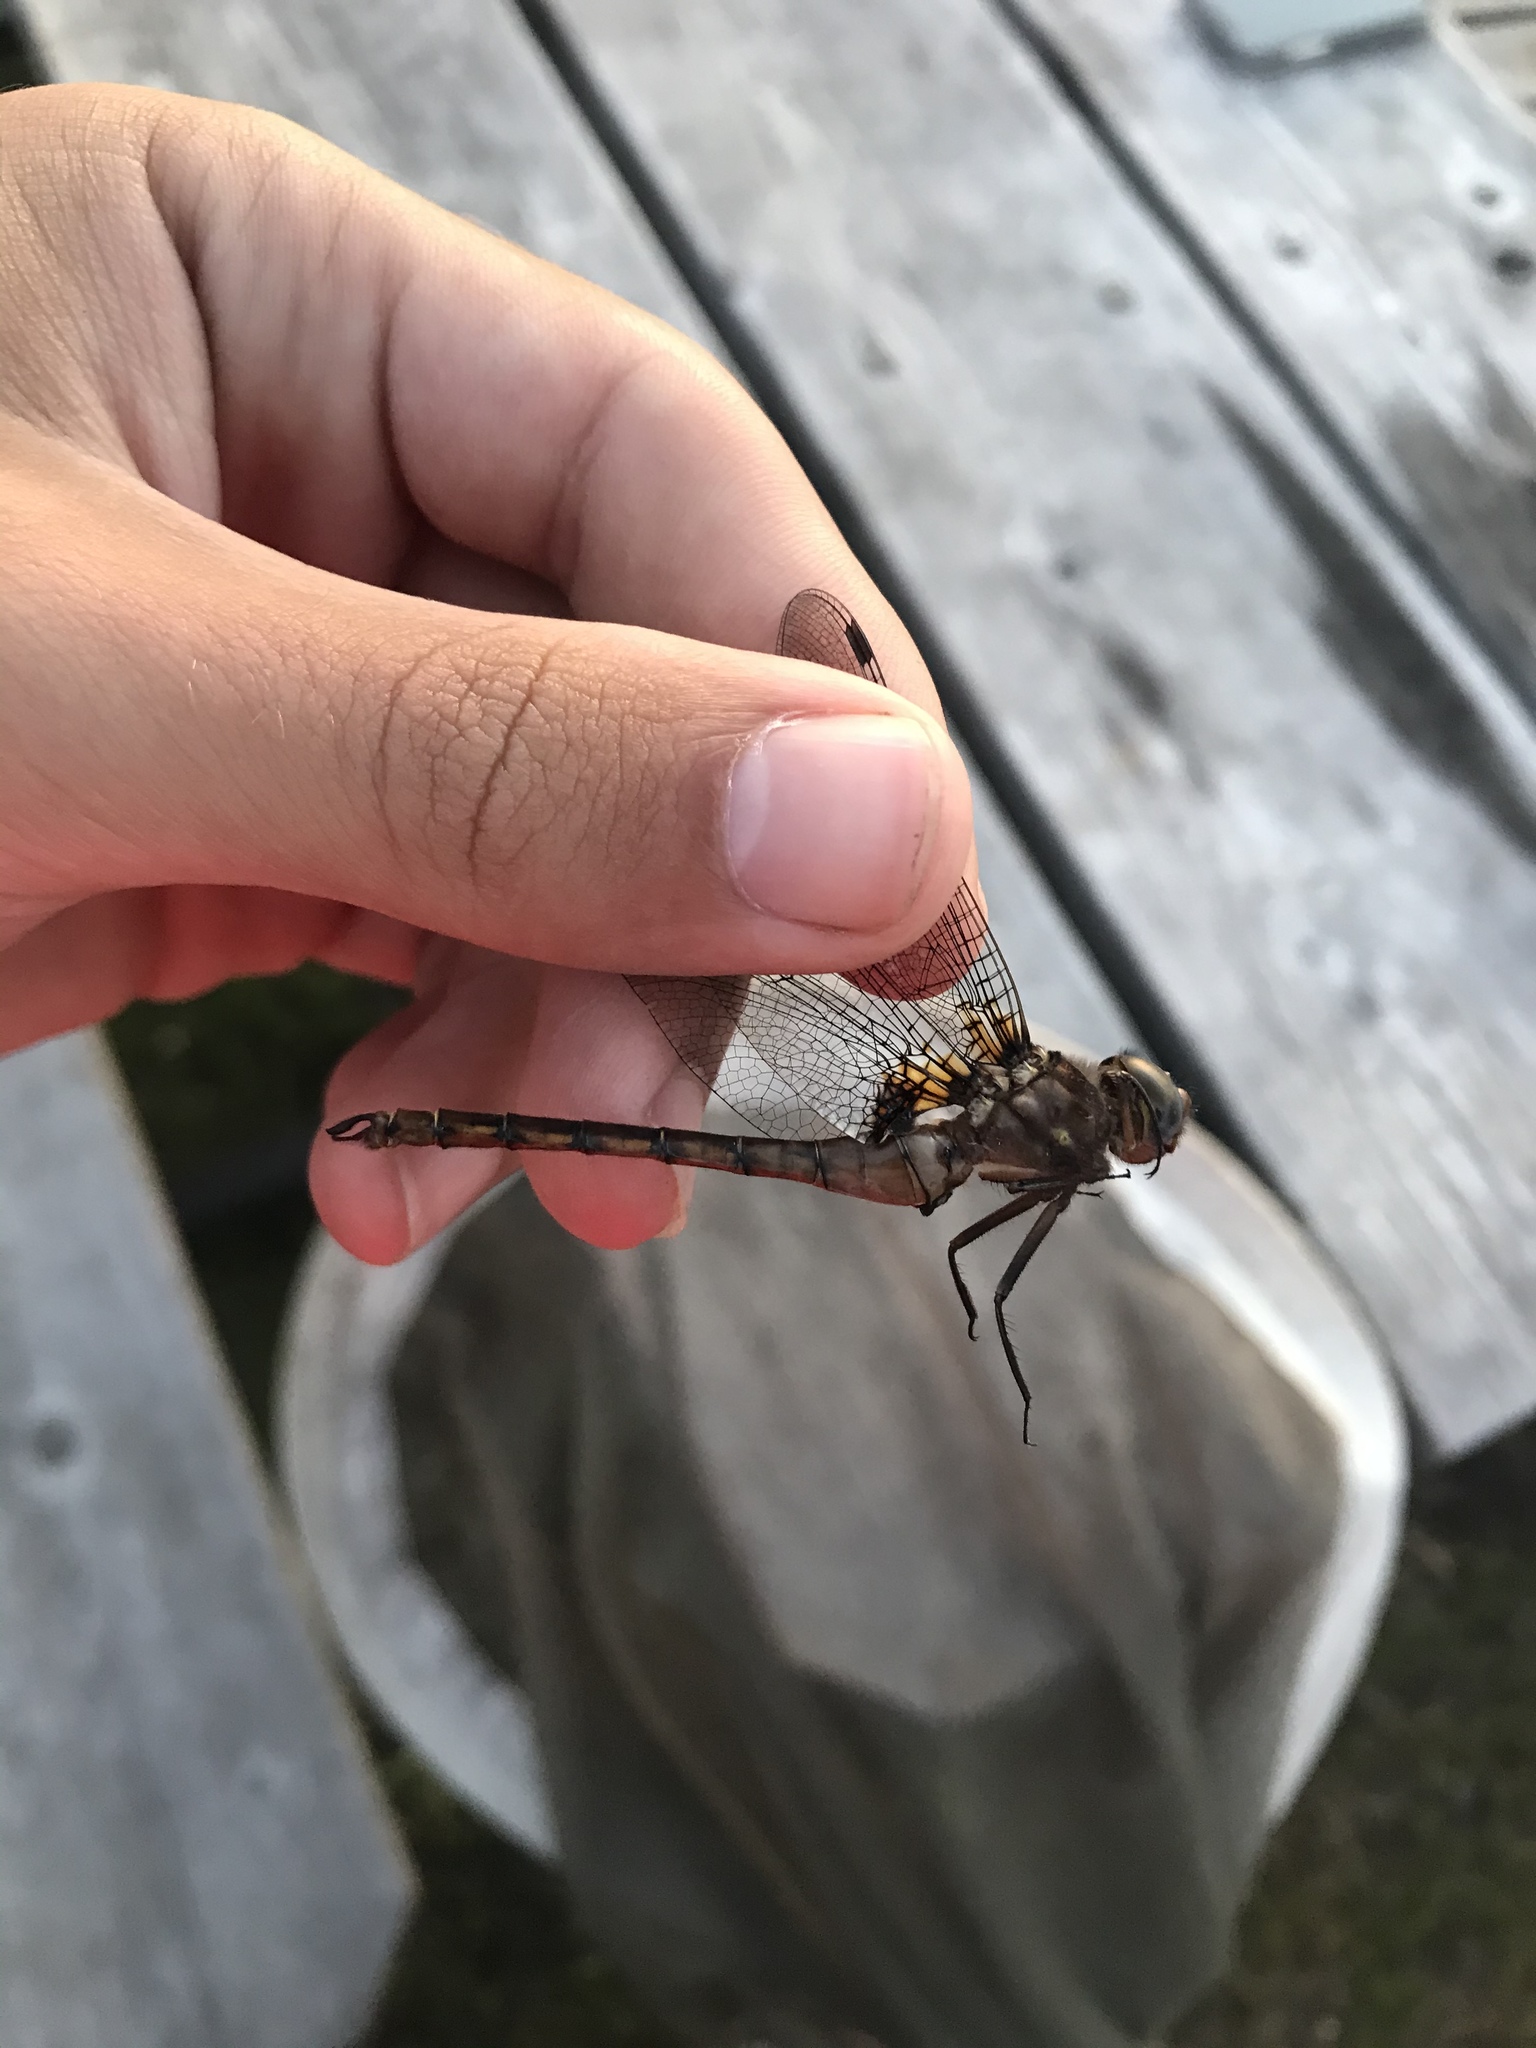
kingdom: Animalia
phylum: Arthropoda
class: Insecta
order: Odonata
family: Corduliidae
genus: Neurocordulia
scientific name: Neurocordulia yamaskanensis
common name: Stygian shadowdragon
